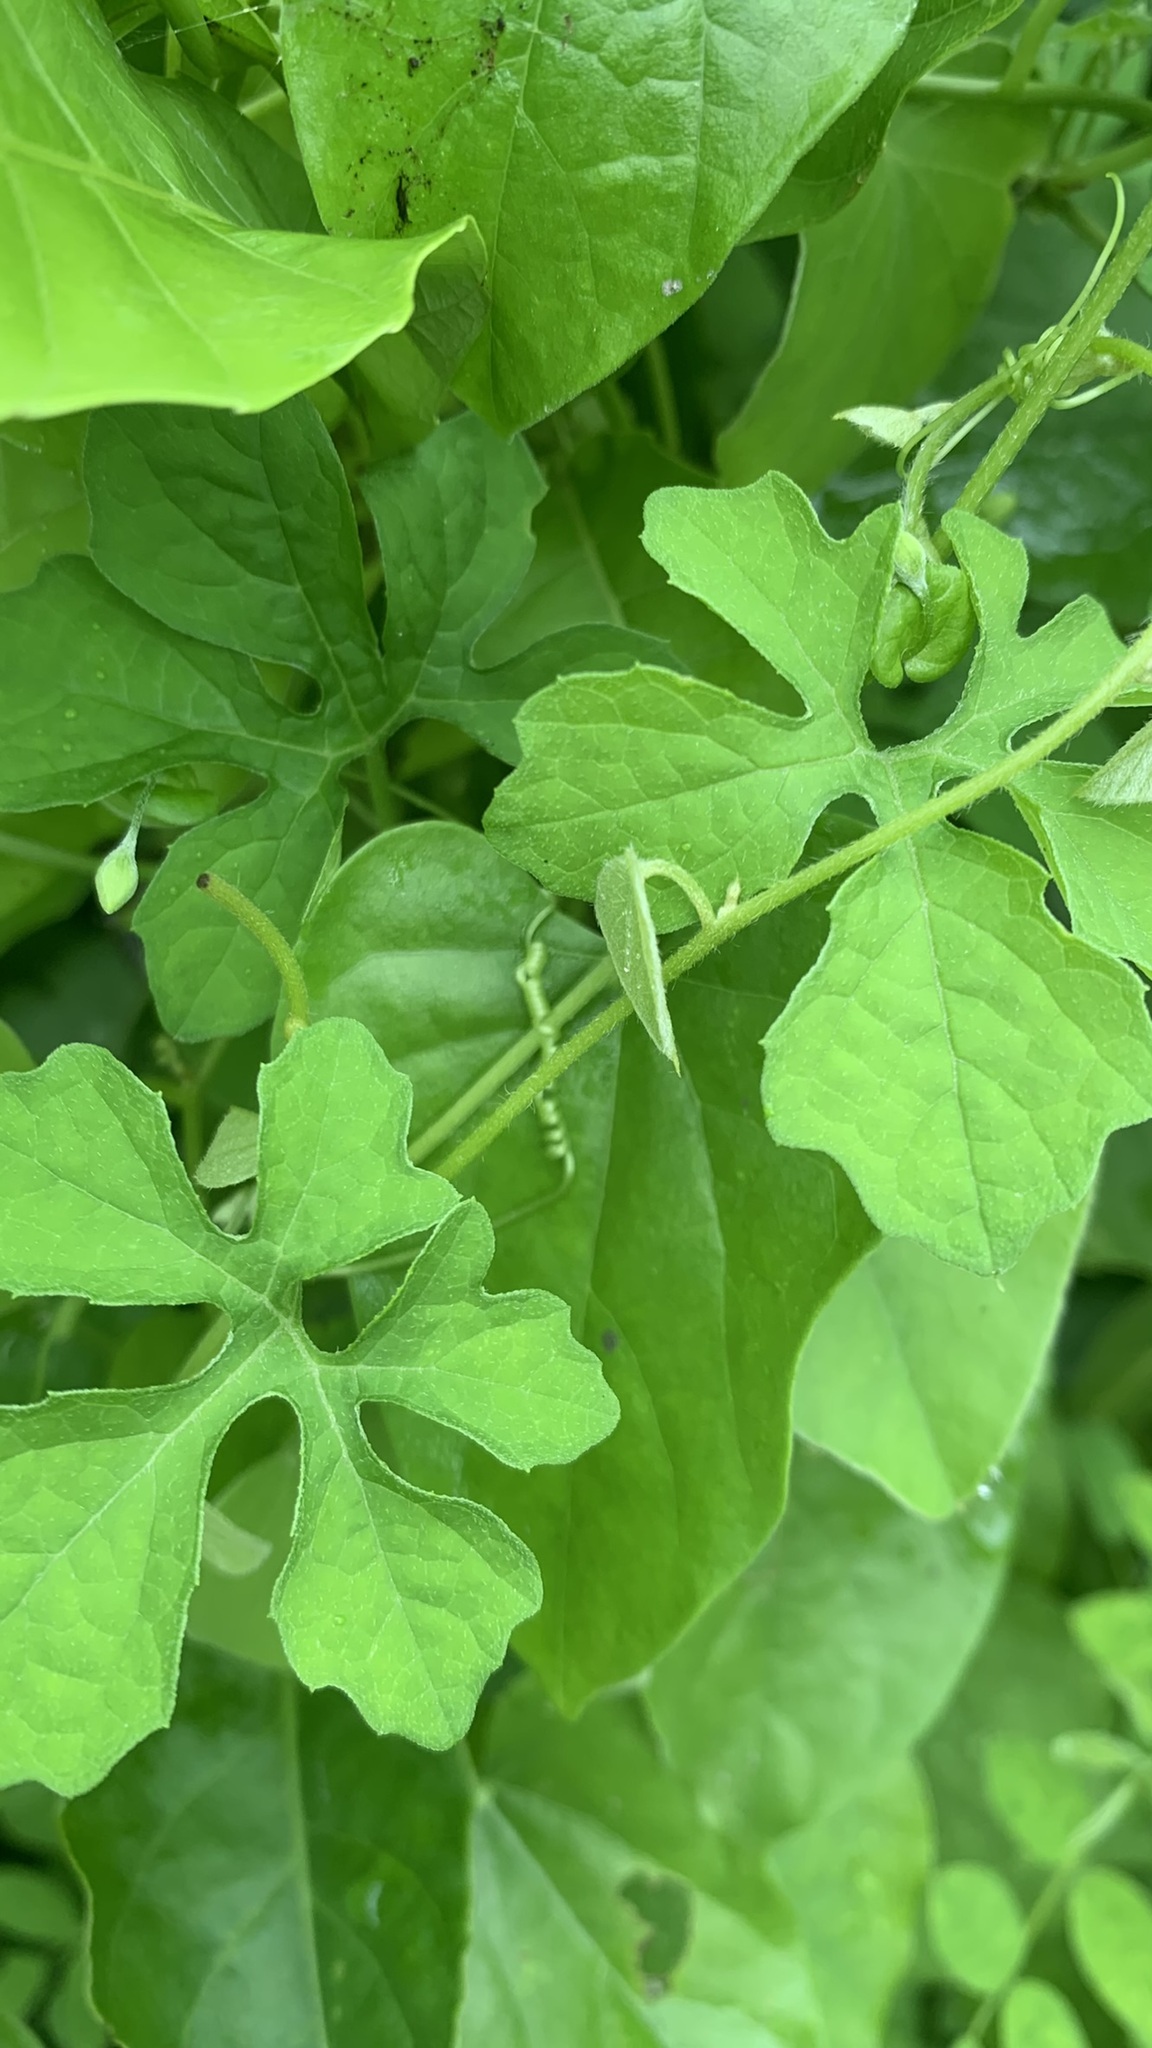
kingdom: Plantae
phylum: Tracheophyta
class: Magnoliopsida
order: Cucurbitales
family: Cucurbitaceae
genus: Momordica
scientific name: Momordica charantia
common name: Balsampear
